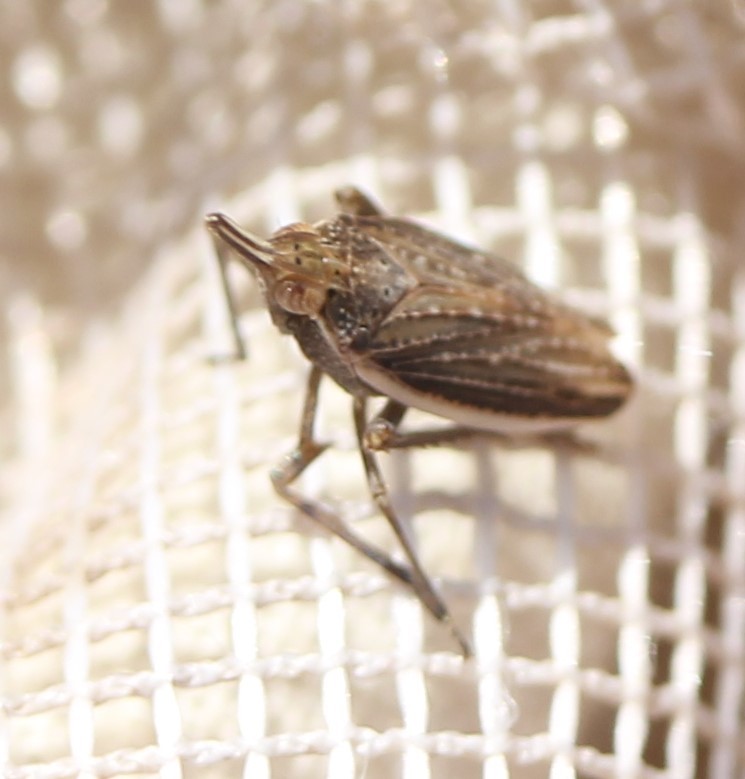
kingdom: Animalia
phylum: Arthropoda
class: Insecta
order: Hemiptera
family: Dictyopharidae
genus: Scolops
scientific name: Scolops angustatus
